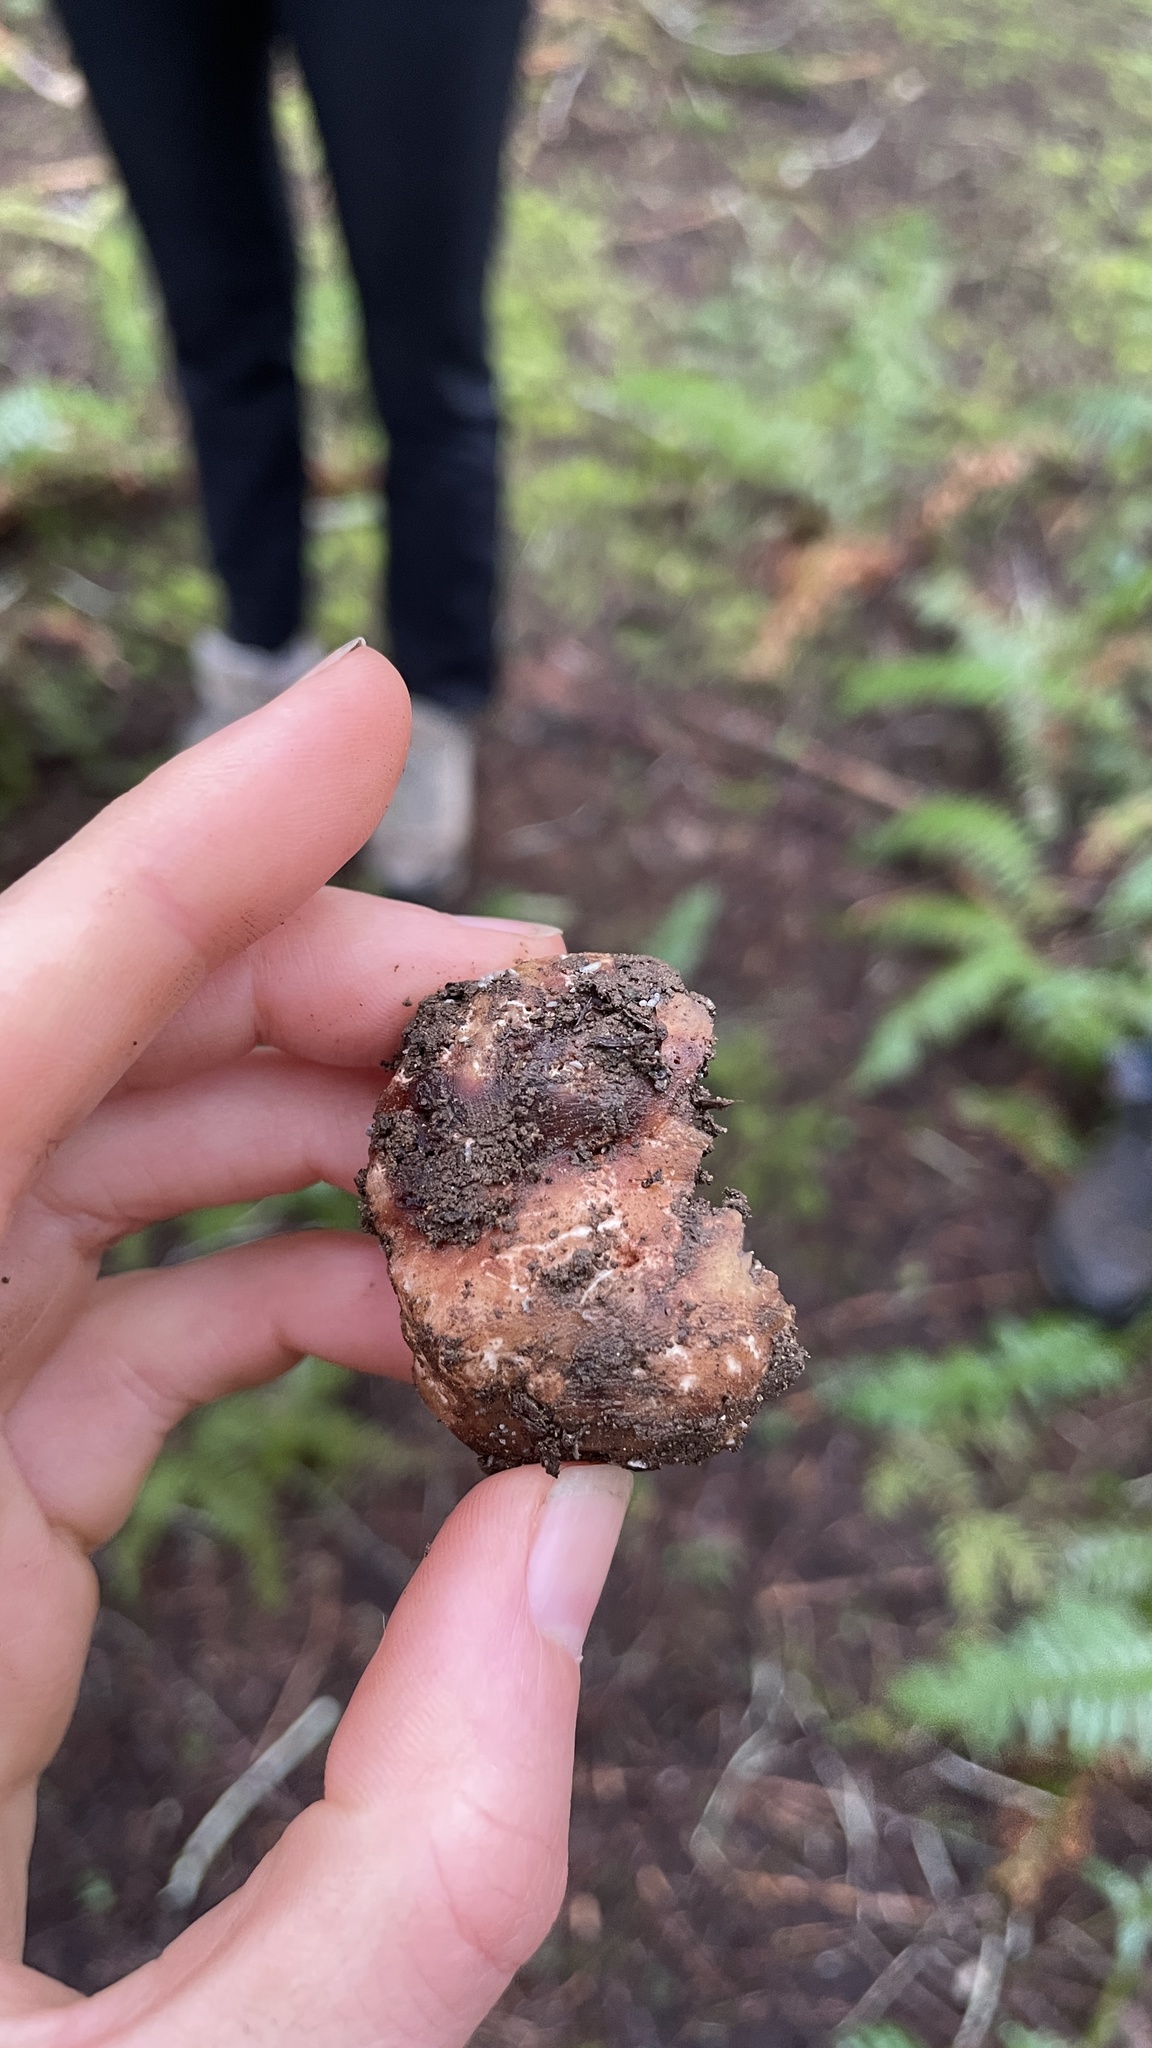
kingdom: Fungi
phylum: Ascomycota
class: Pezizomycetes
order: Pezizales
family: Tuberaceae
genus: Tuber
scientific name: Tuber gibbosum
